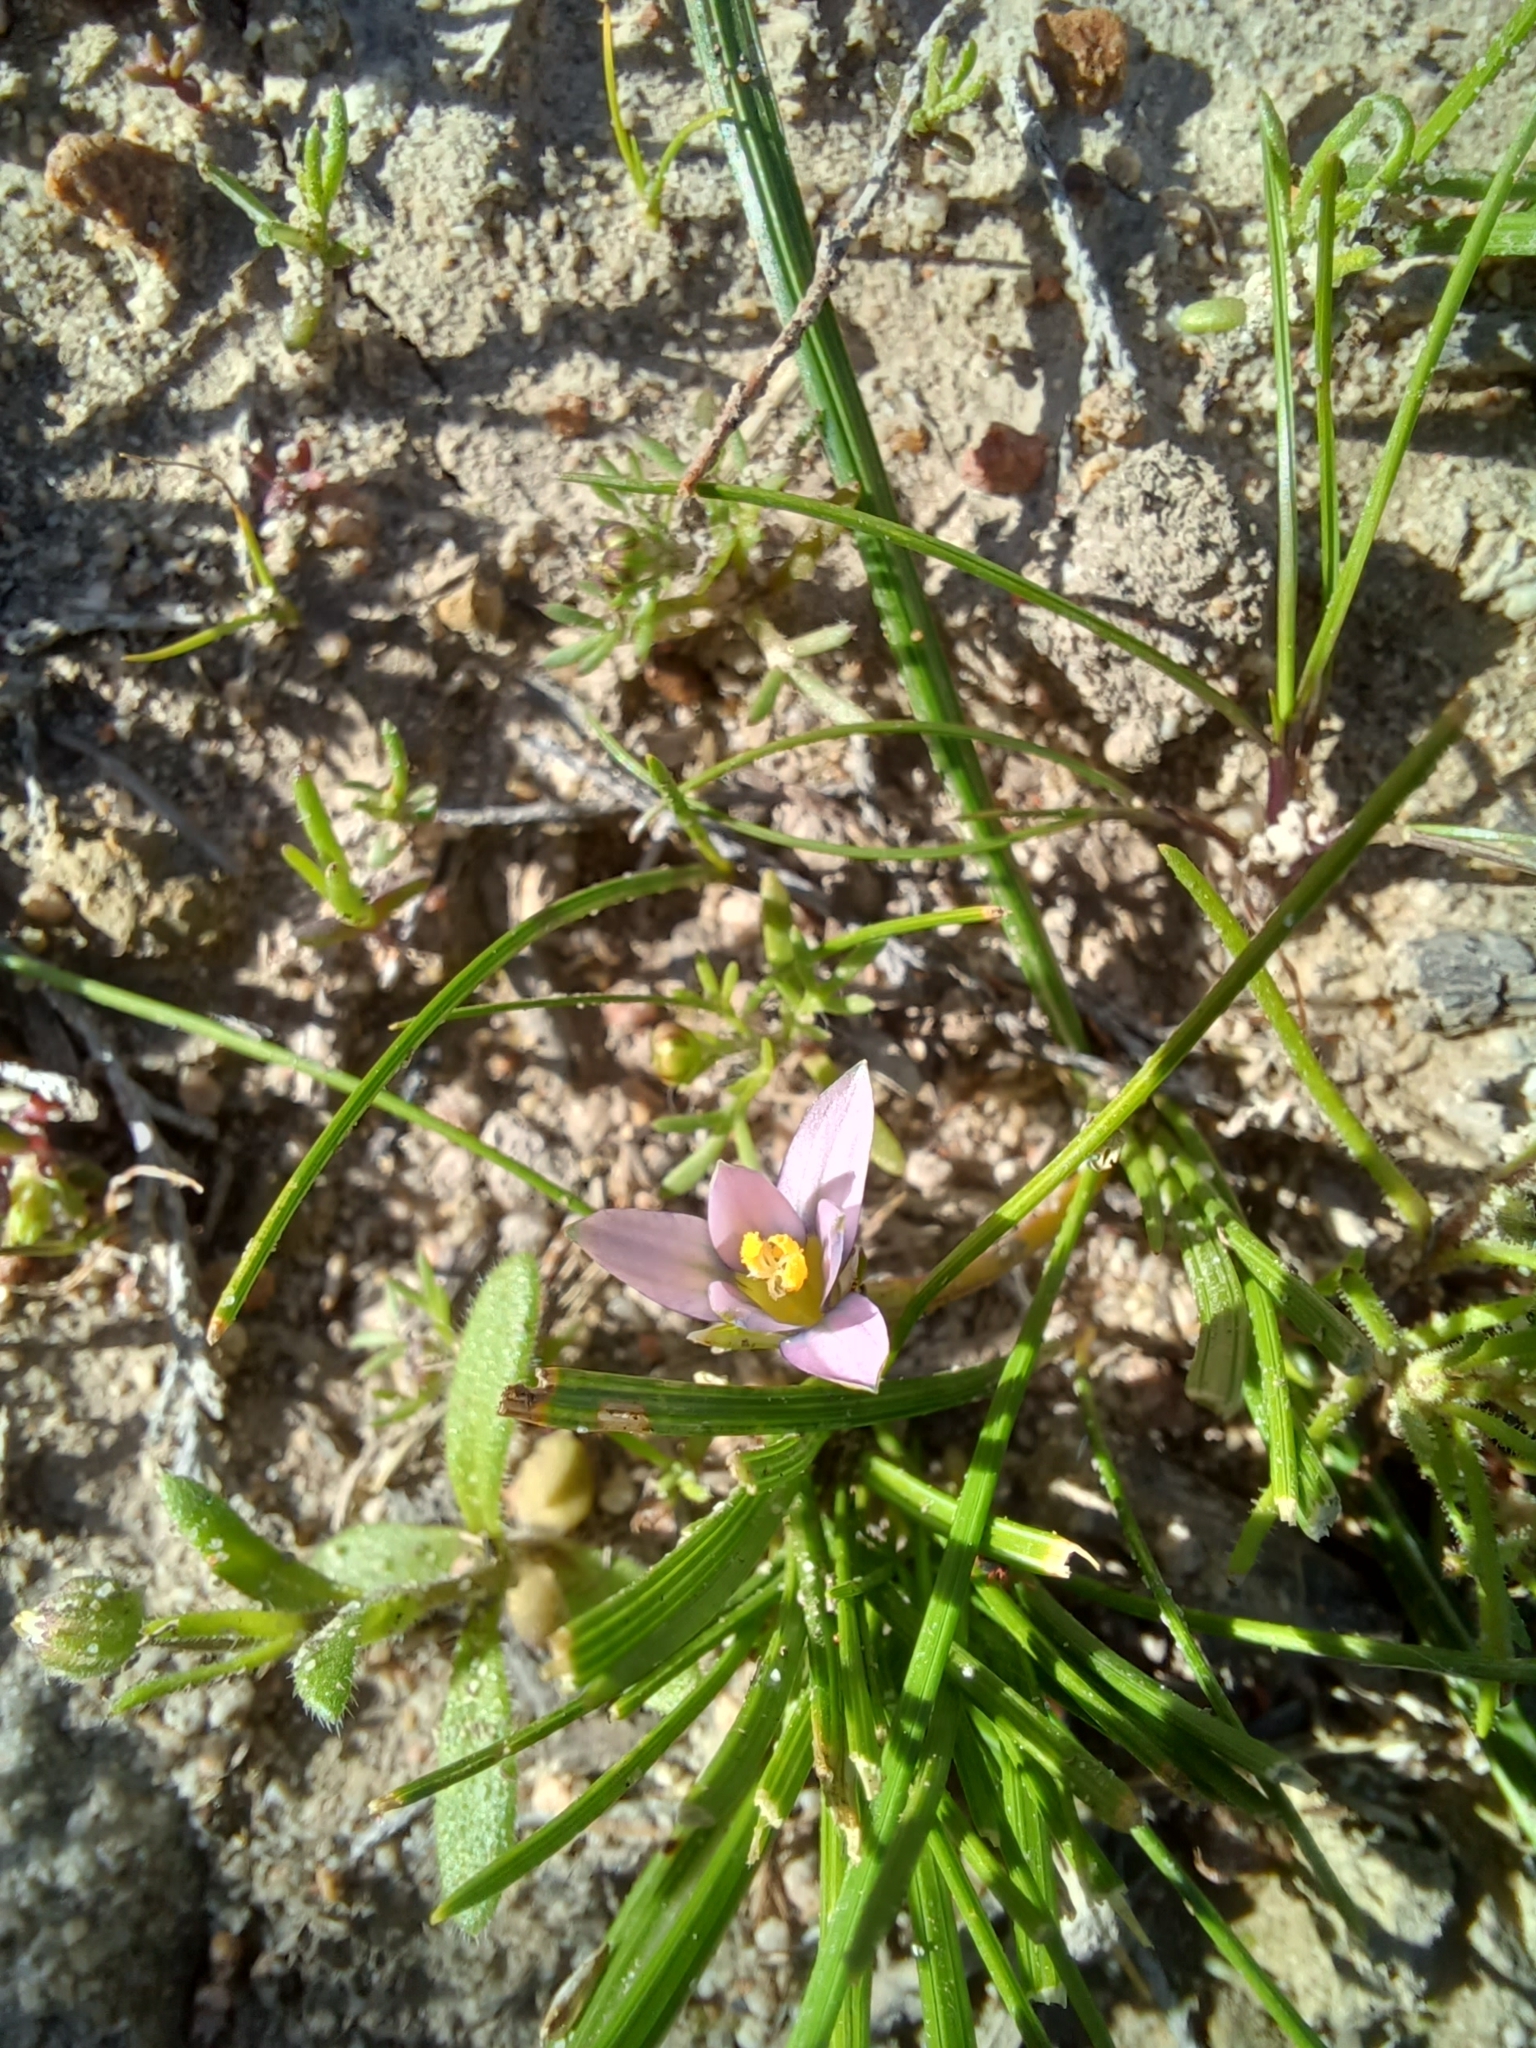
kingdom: Plantae
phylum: Tracheophyta
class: Liliopsida
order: Asparagales
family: Iridaceae
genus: Romulea
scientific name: Romulea minutiflora
